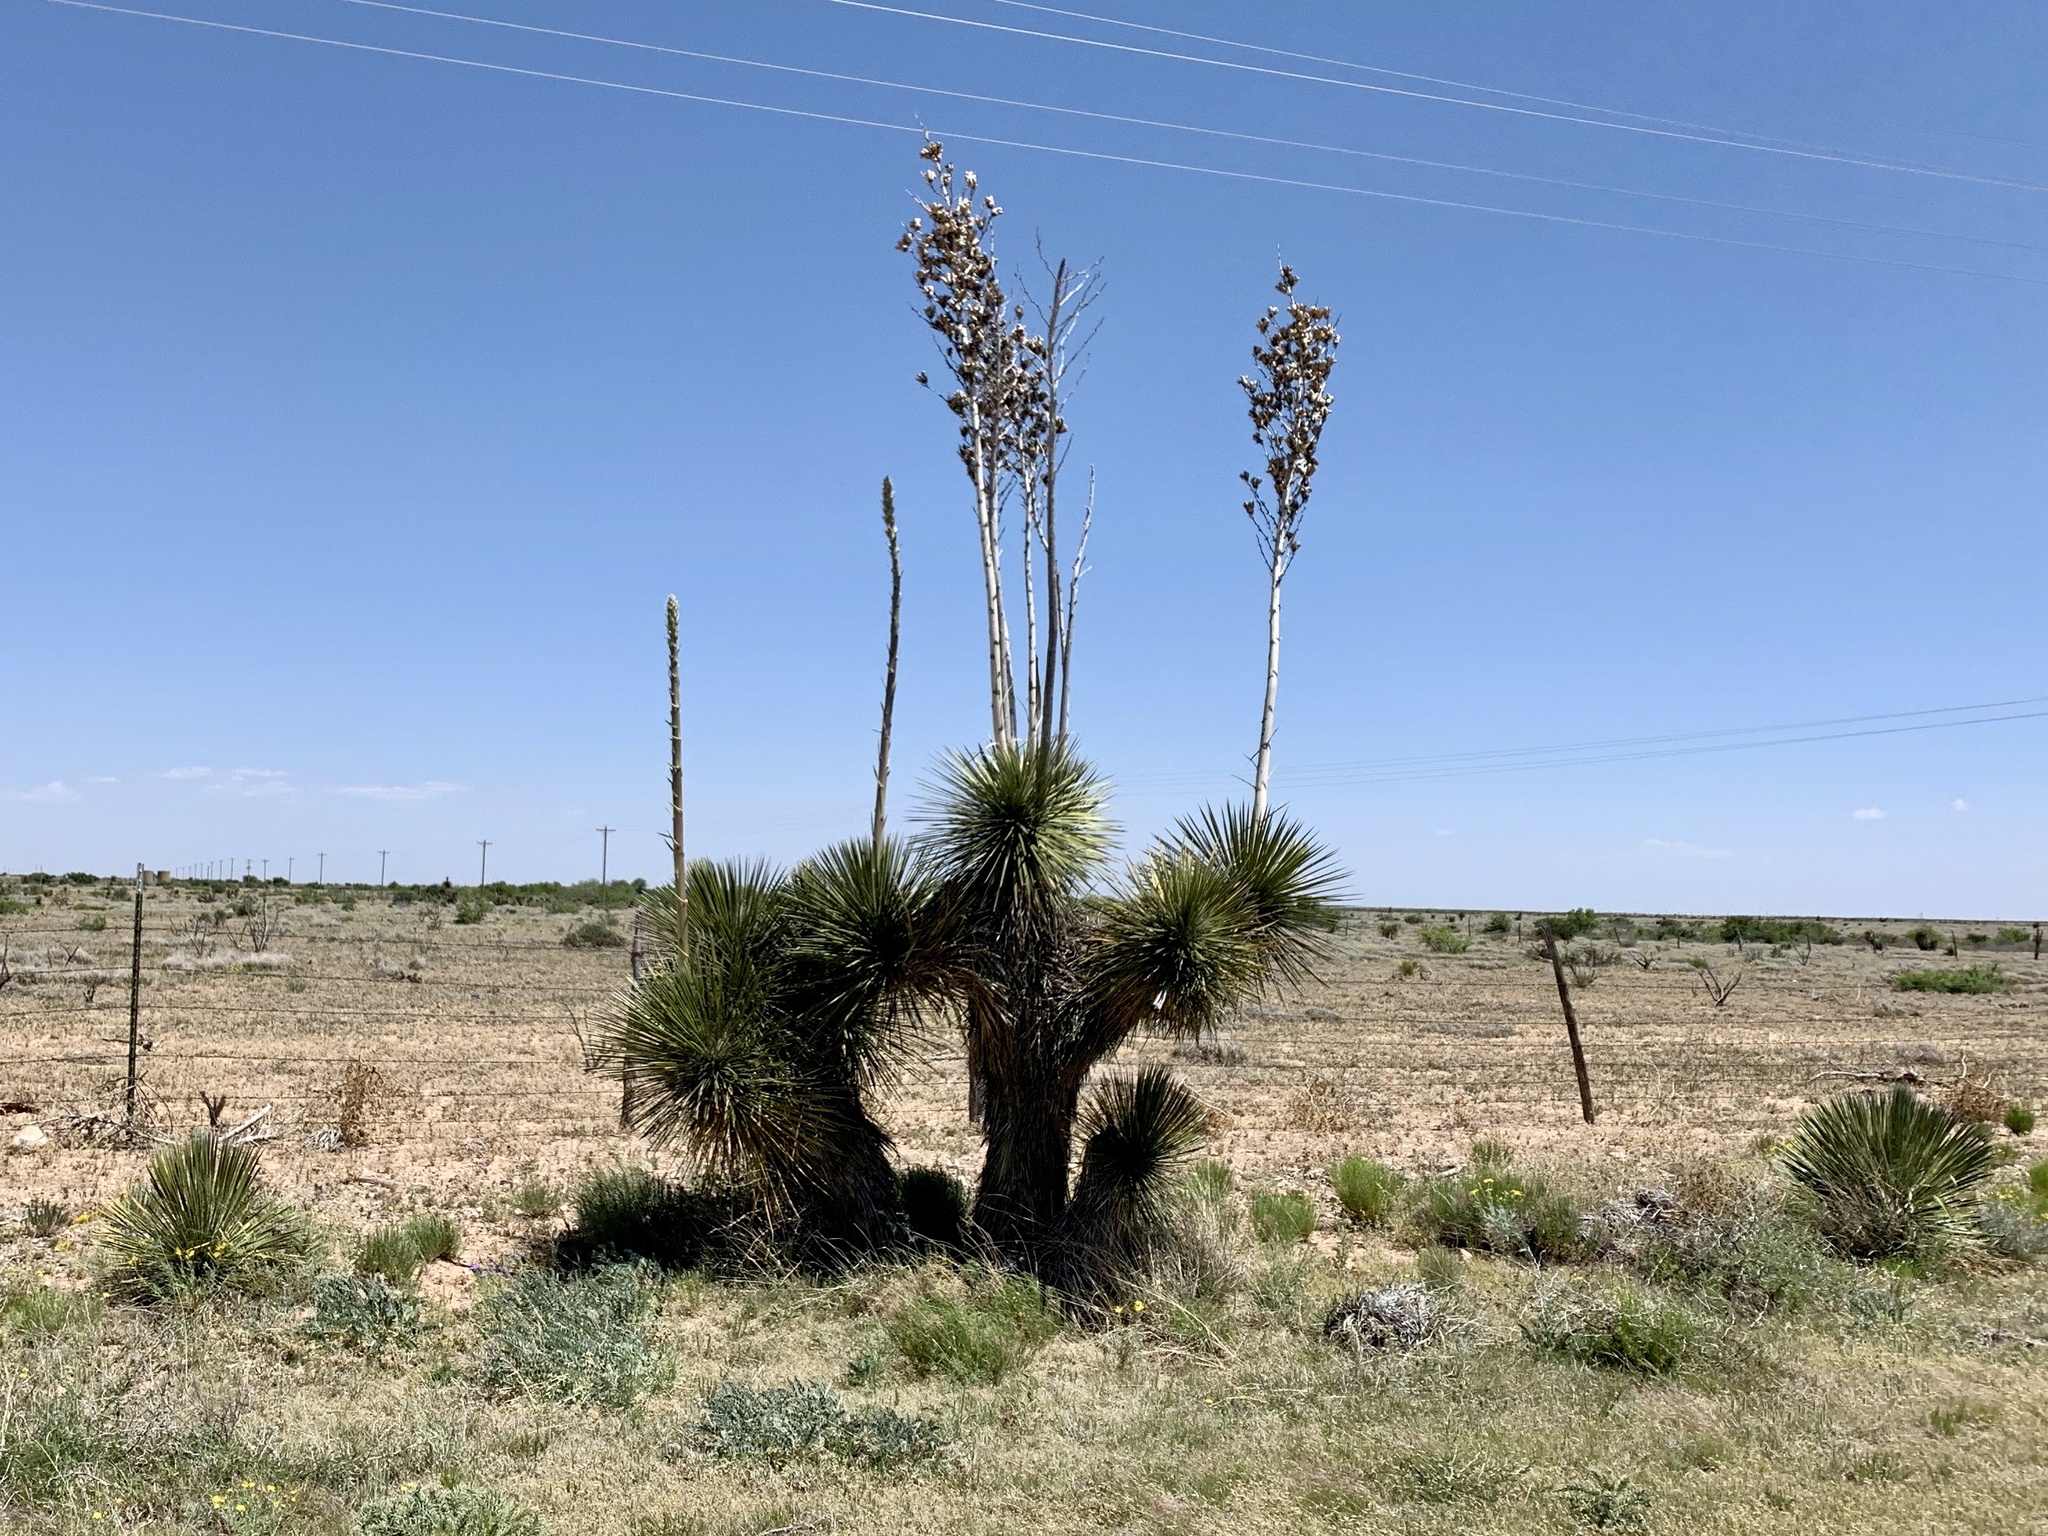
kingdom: Plantae
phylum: Tracheophyta
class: Liliopsida
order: Asparagales
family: Asparagaceae
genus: Yucca
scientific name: Yucca elata
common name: Palmella
